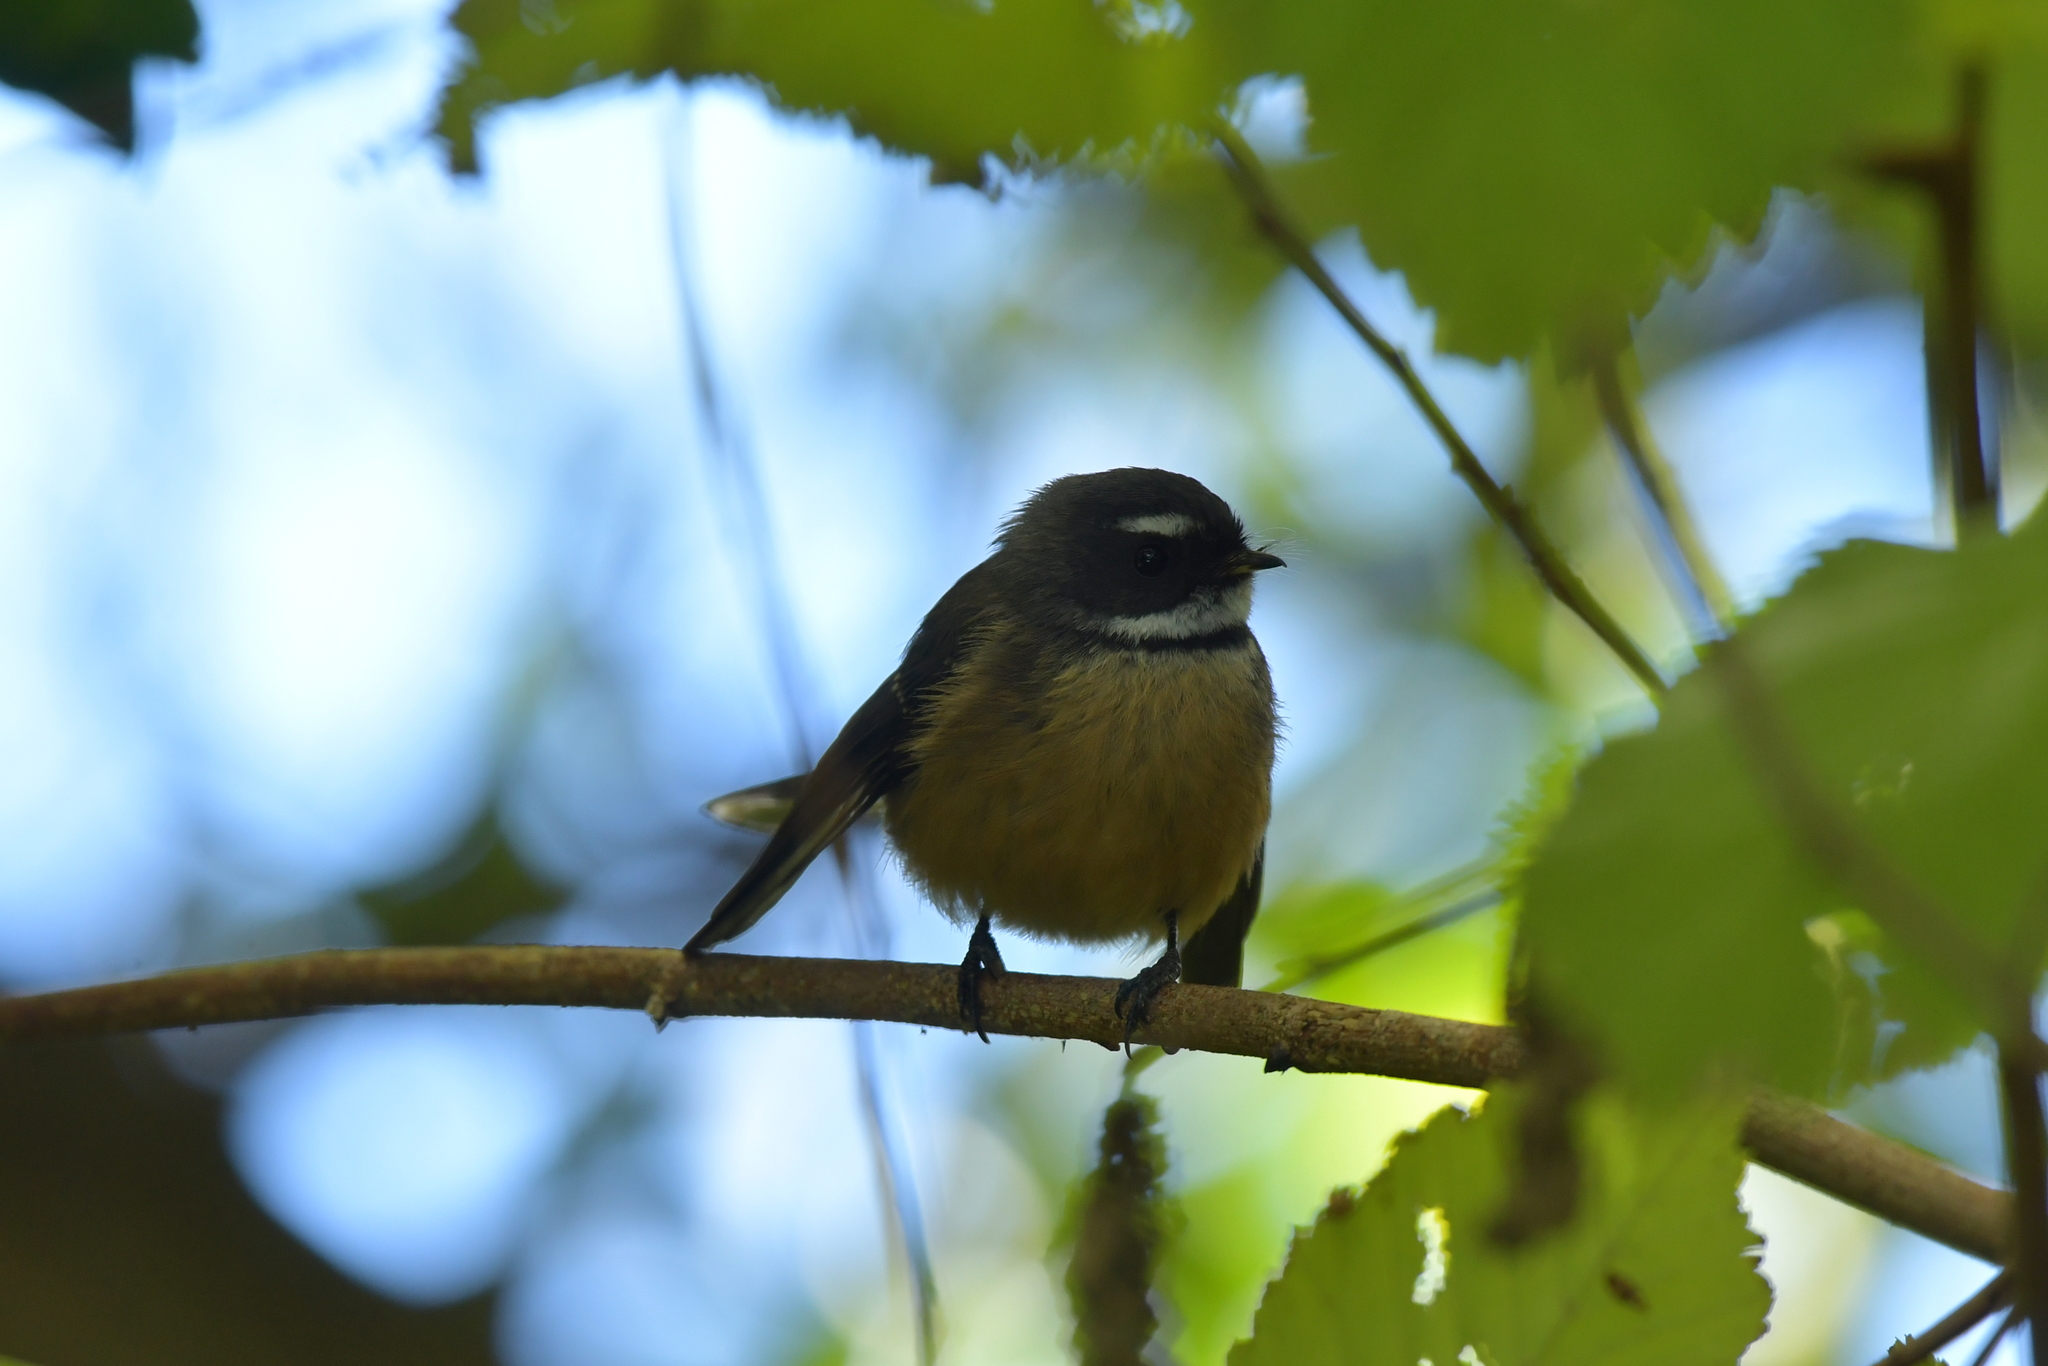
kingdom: Animalia
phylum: Chordata
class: Aves
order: Passeriformes
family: Rhipiduridae
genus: Rhipidura
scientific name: Rhipidura fuliginosa
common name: New zealand fantail
